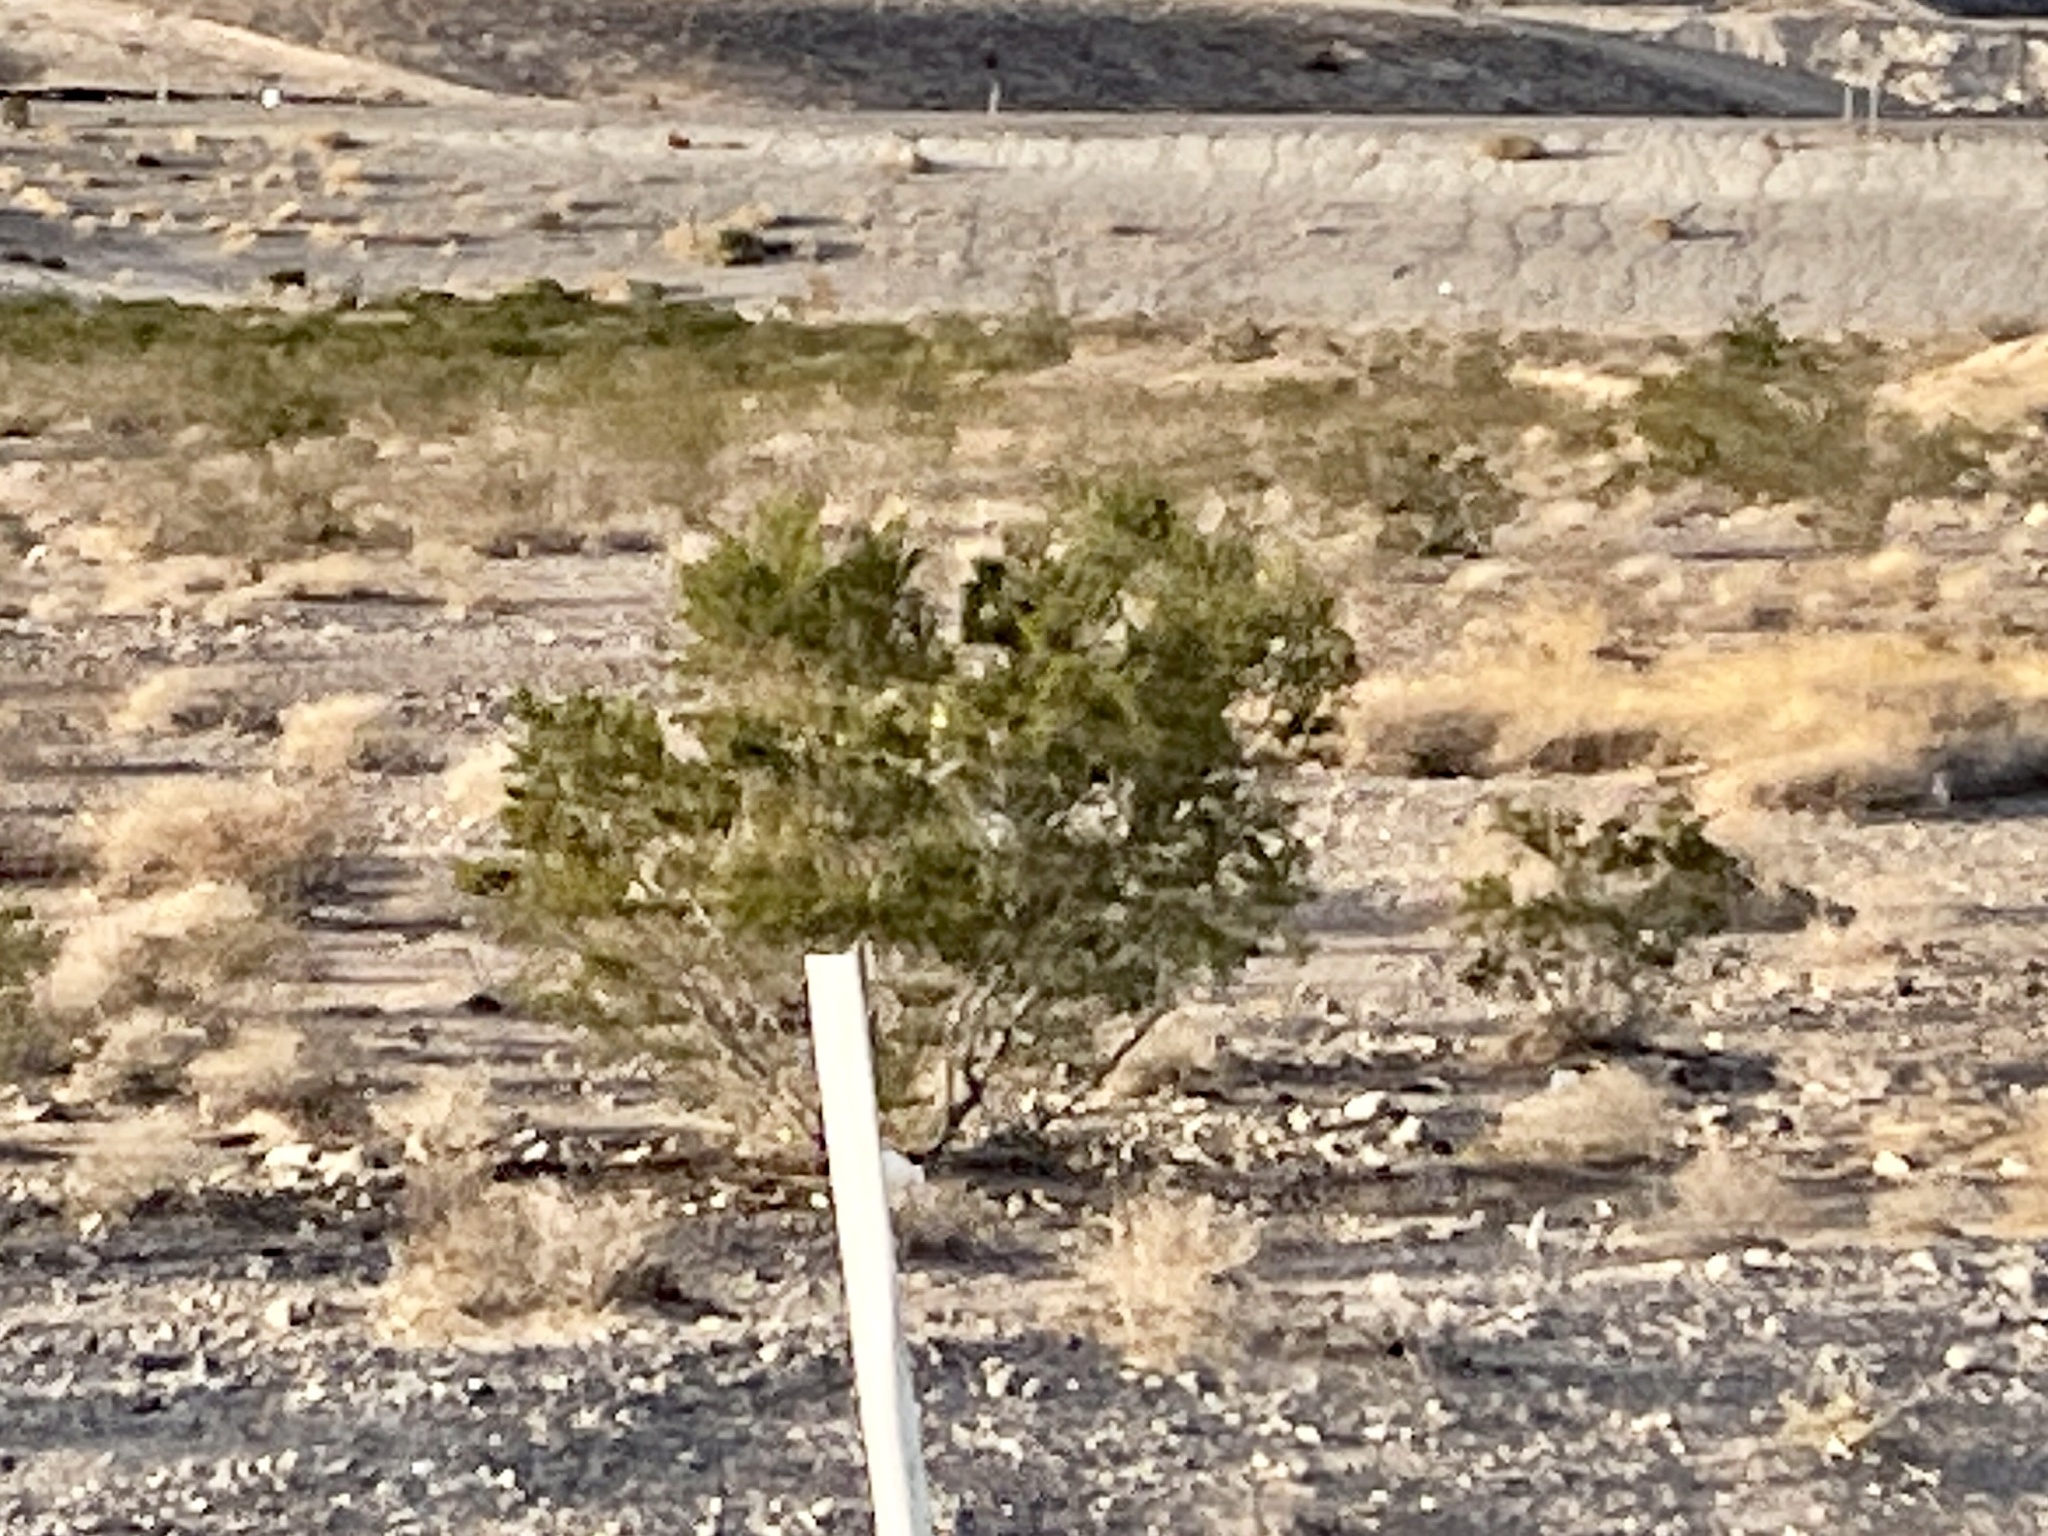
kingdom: Plantae
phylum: Tracheophyta
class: Magnoliopsida
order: Zygophyllales
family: Zygophyllaceae
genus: Larrea
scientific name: Larrea tridentata
